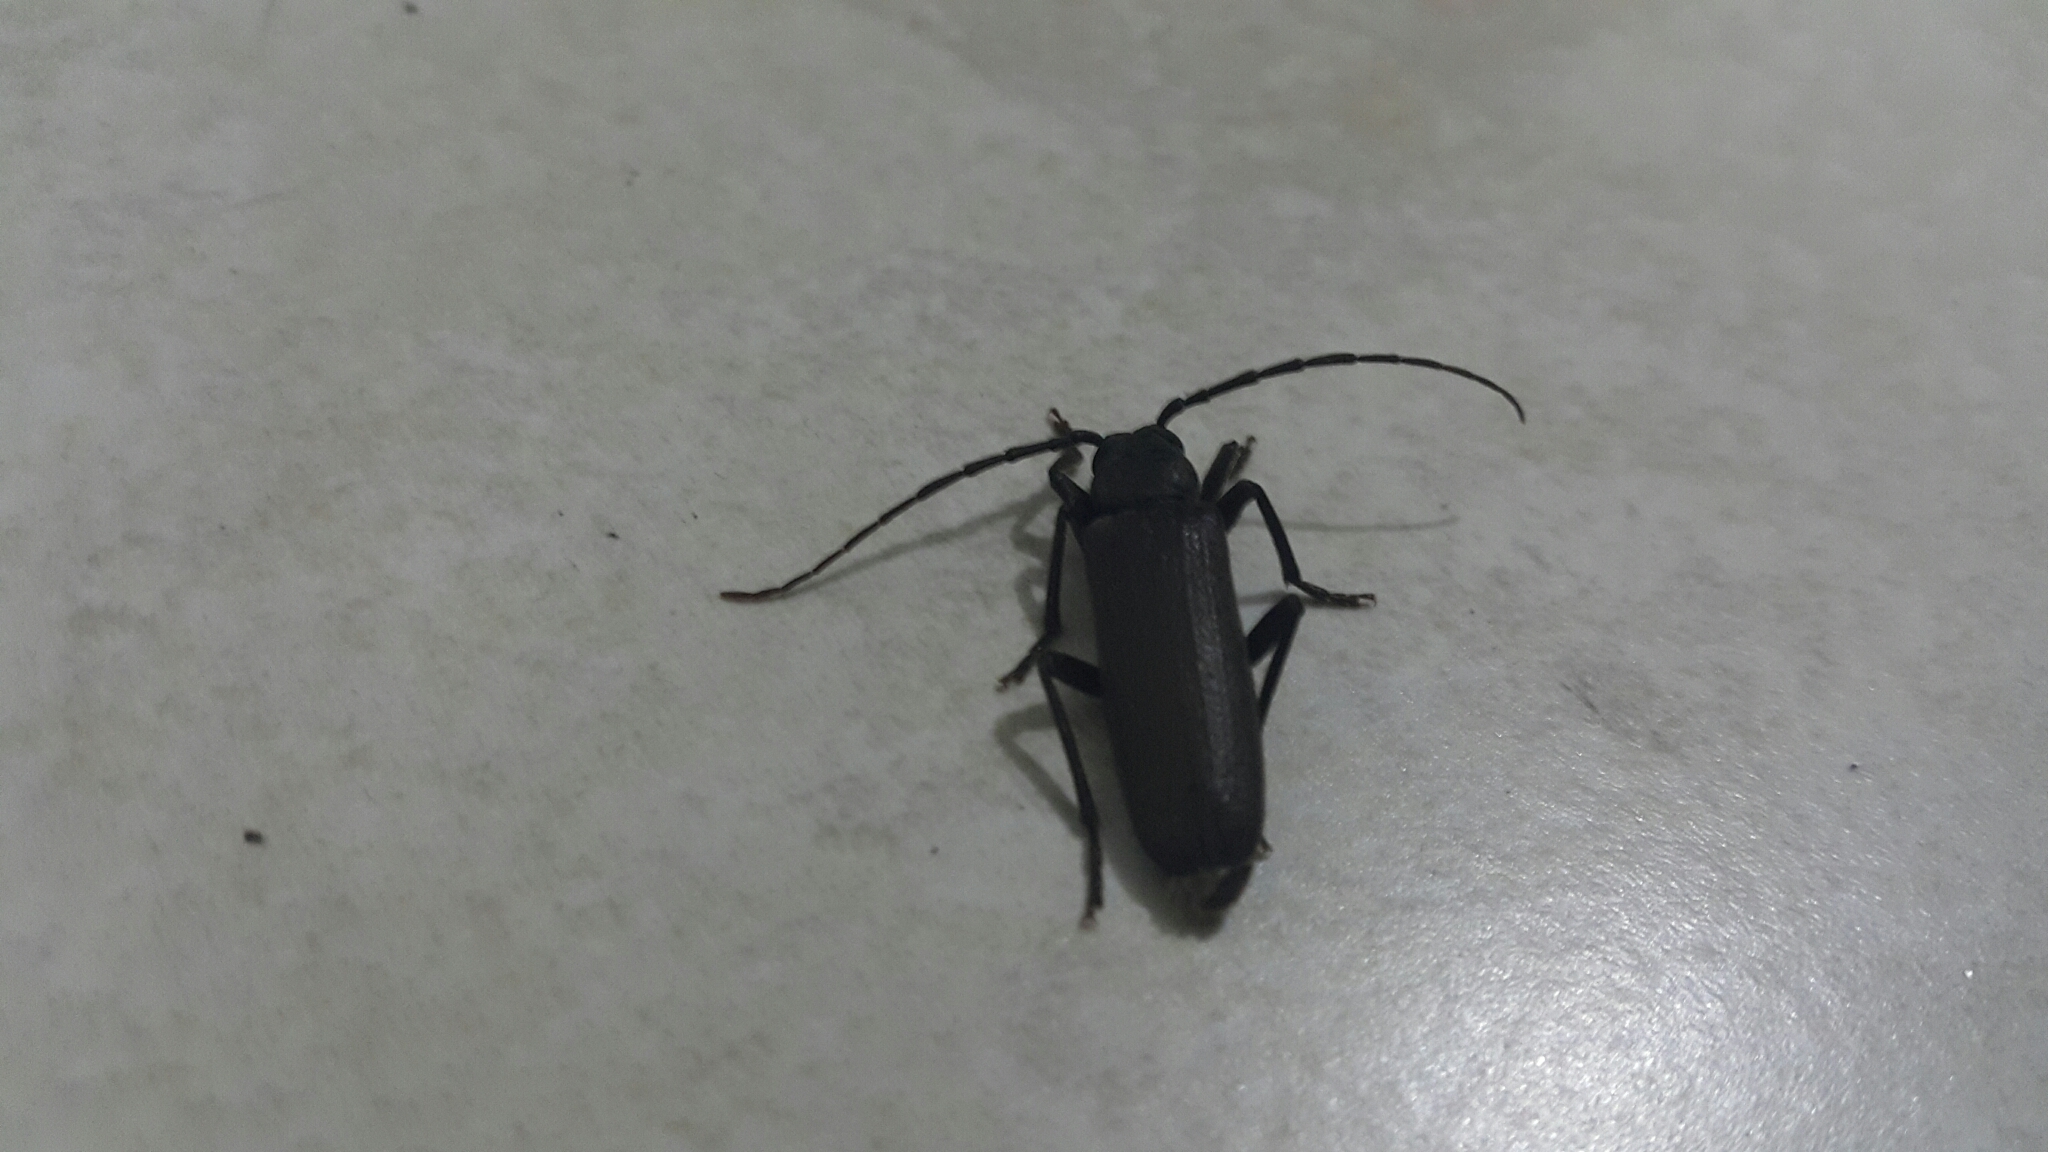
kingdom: Animalia
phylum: Arthropoda
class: Insecta
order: Coleoptera
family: Cerambycidae
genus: Arhopalus
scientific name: Arhopalus rusticus
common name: Rust pine borer
